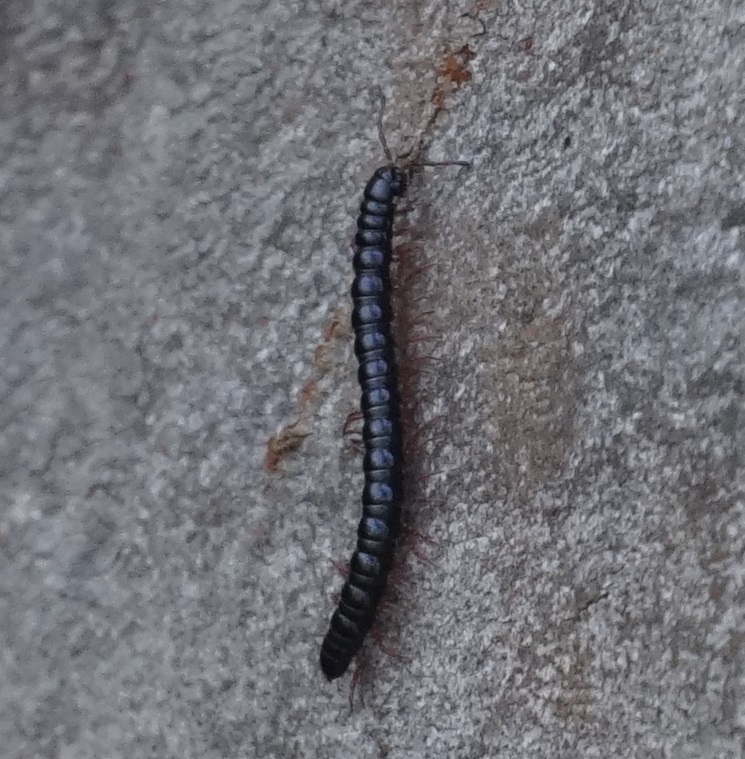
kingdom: Animalia
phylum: Arthropoda
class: Diplopoda
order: Polydesmida
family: Paradoxosomatidae
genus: Heterocladosoma
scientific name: Heterocladosoma
